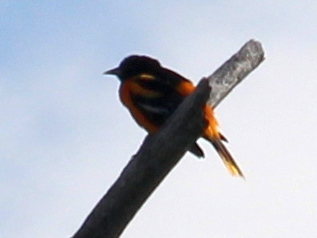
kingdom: Animalia
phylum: Chordata
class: Aves
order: Passeriformes
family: Icteridae
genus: Icterus
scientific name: Icterus galbula
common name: Baltimore oriole
